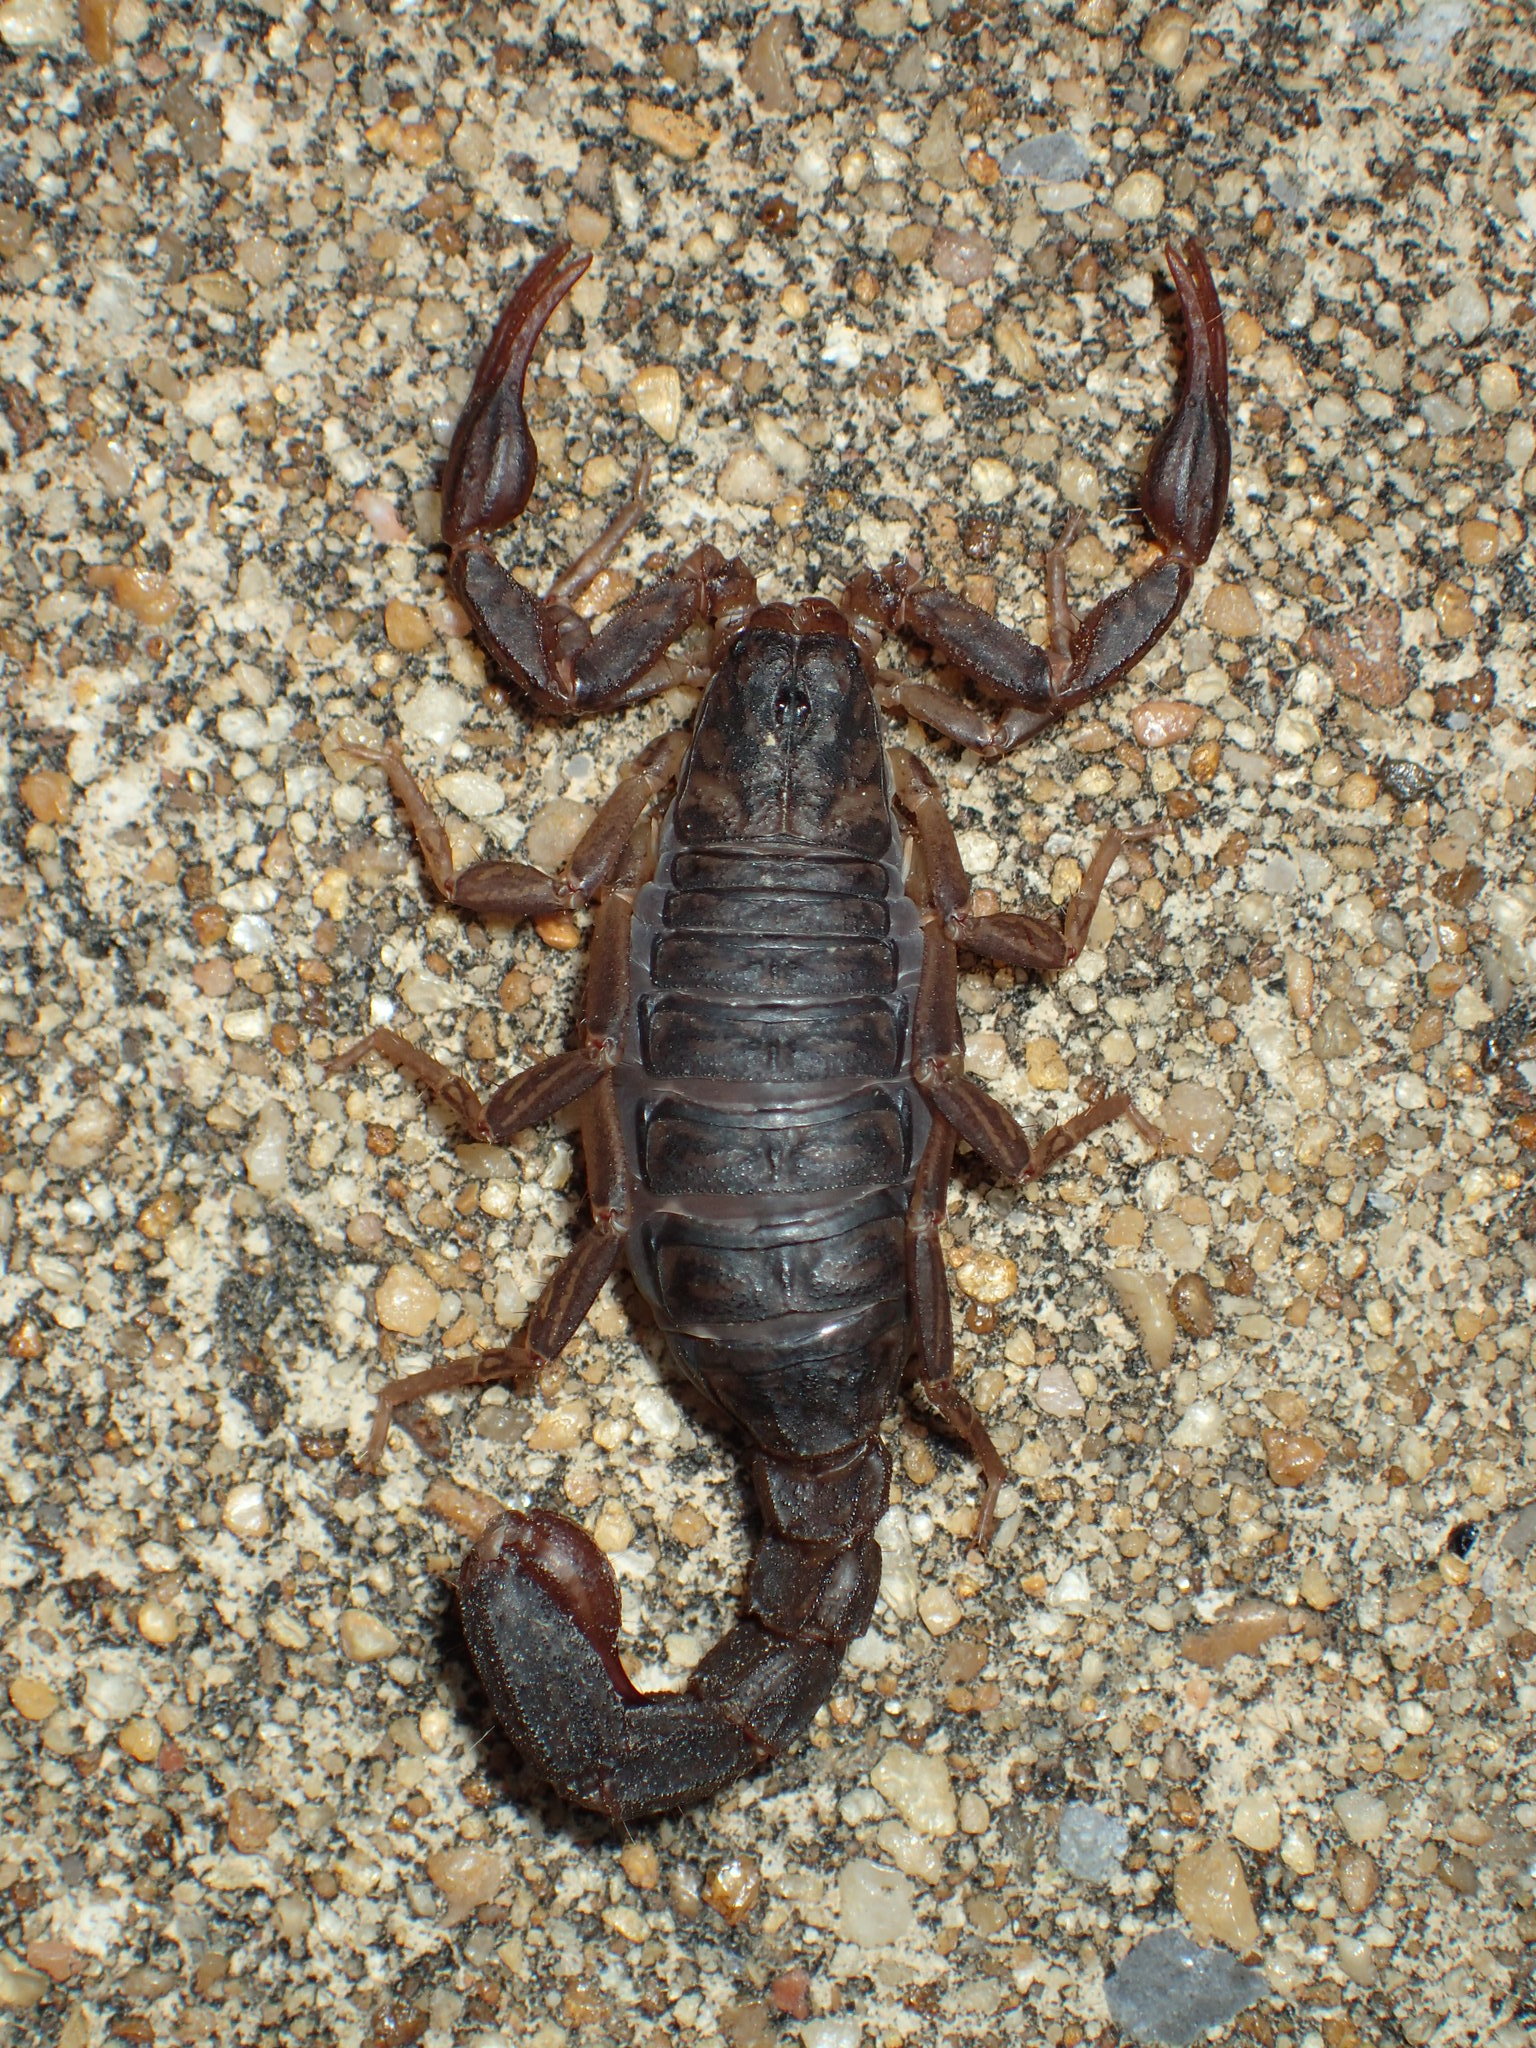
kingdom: Animalia
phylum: Arthropoda
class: Arachnida
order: Scorpiones
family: Vaejovidae
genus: Vaejovis
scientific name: Vaejovis carolinianus
